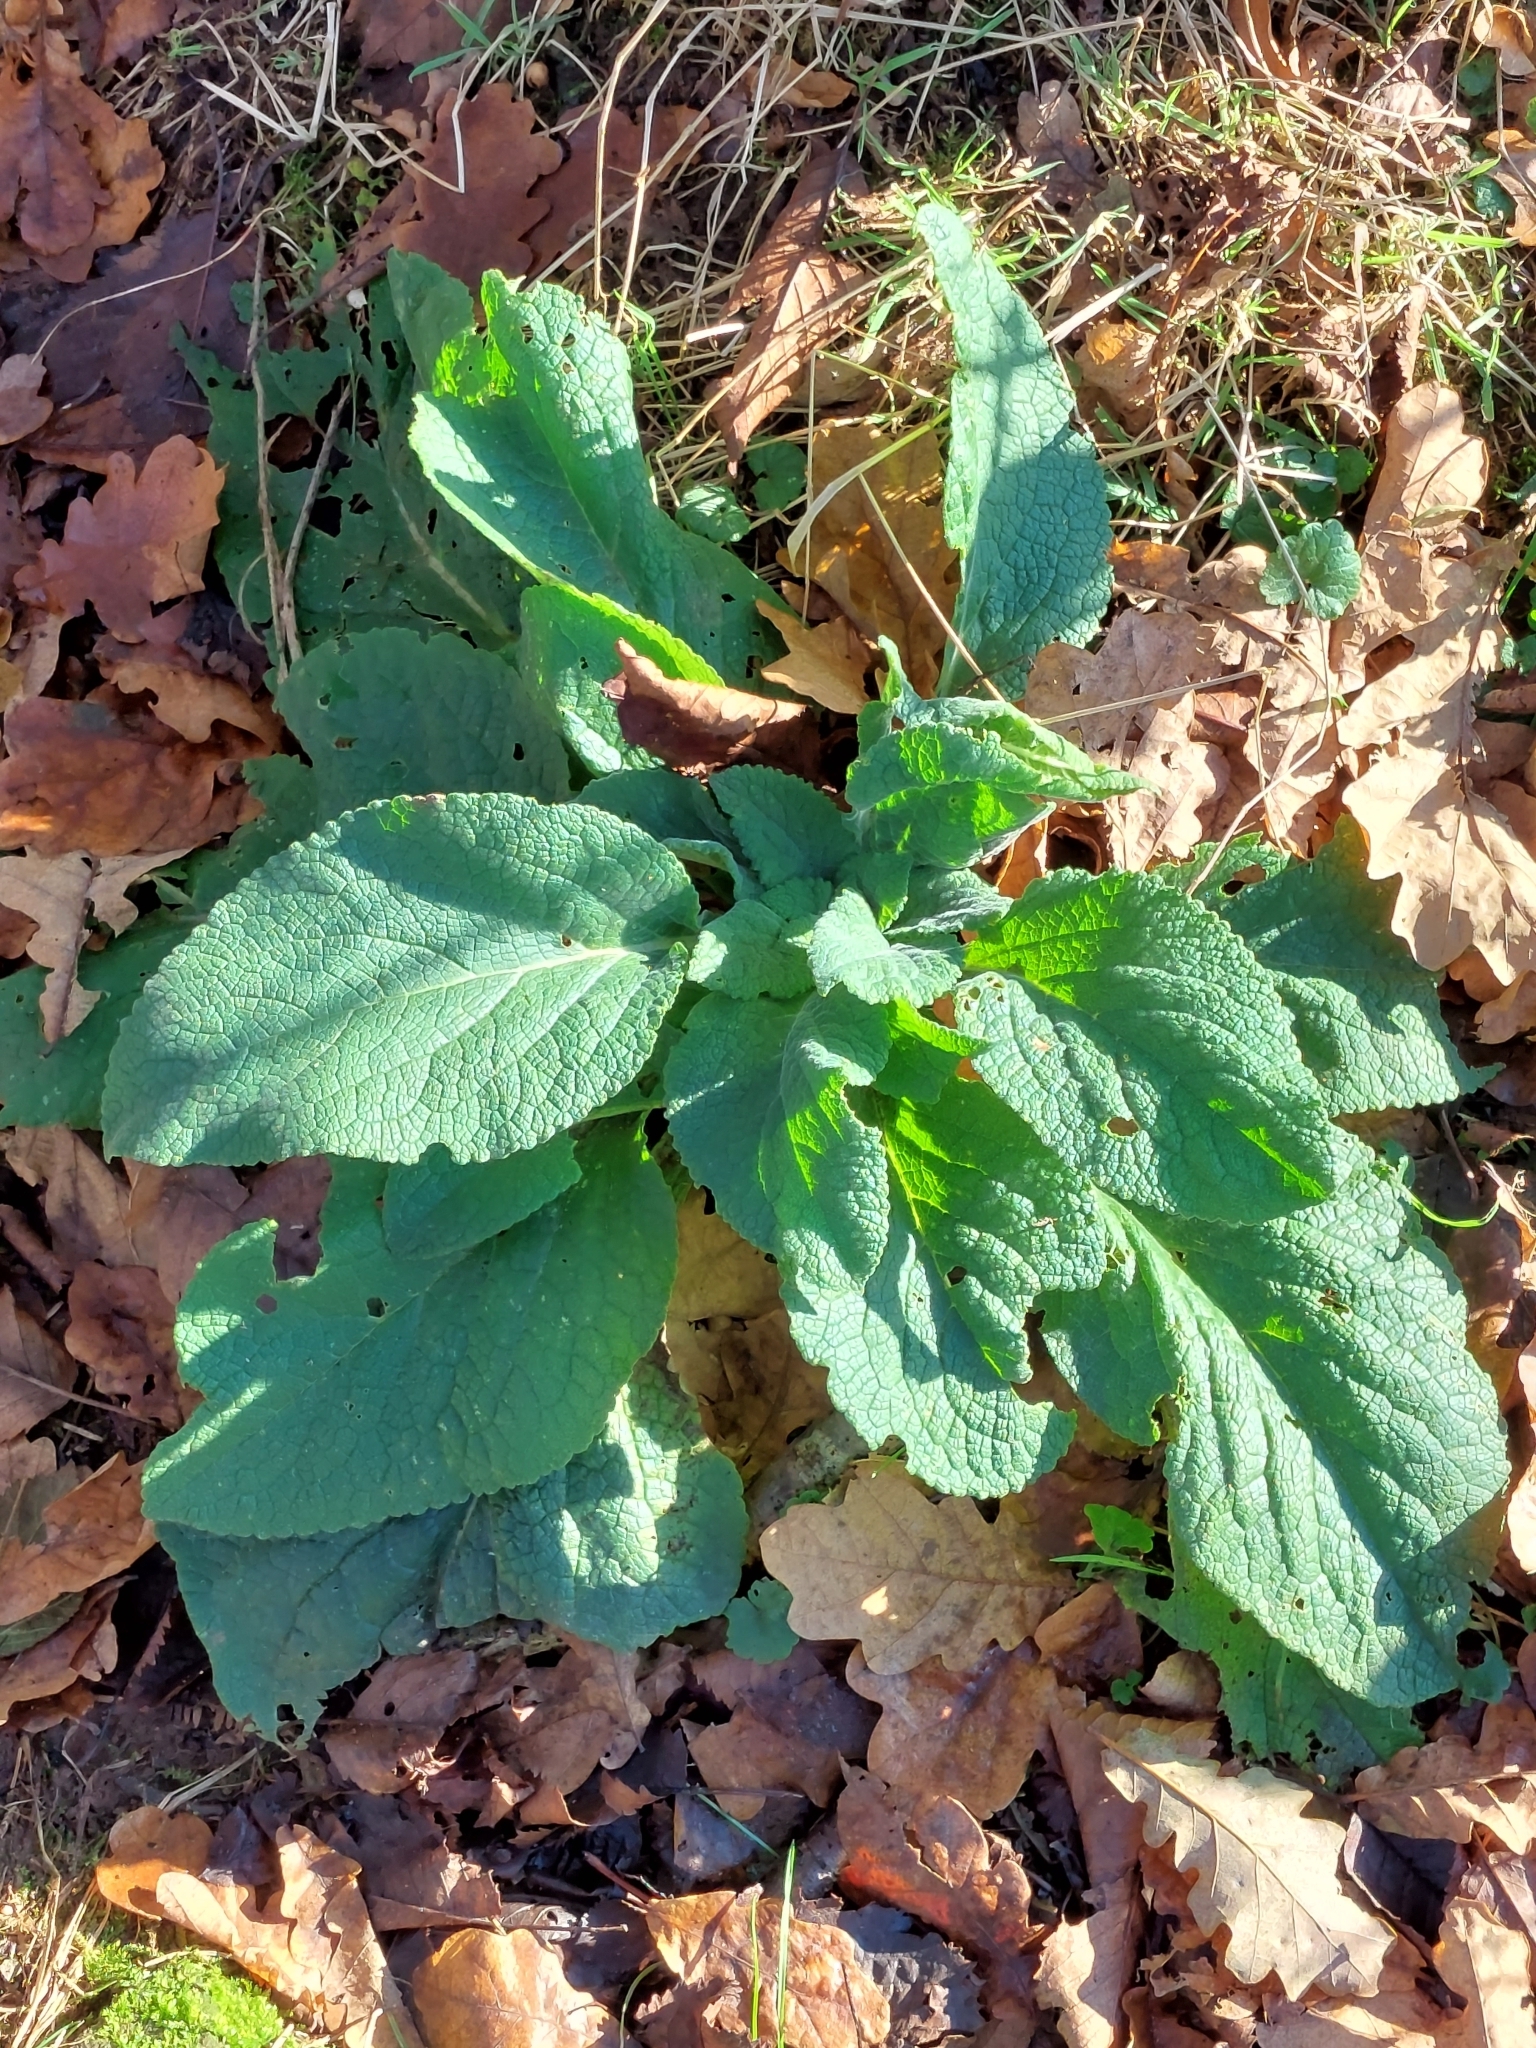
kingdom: Plantae
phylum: Tracheophyta
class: Magnoliopsida
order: Lamiales
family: Plantaginaceae
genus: Digitalis
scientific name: Digitalis purpurea
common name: Foxglove
